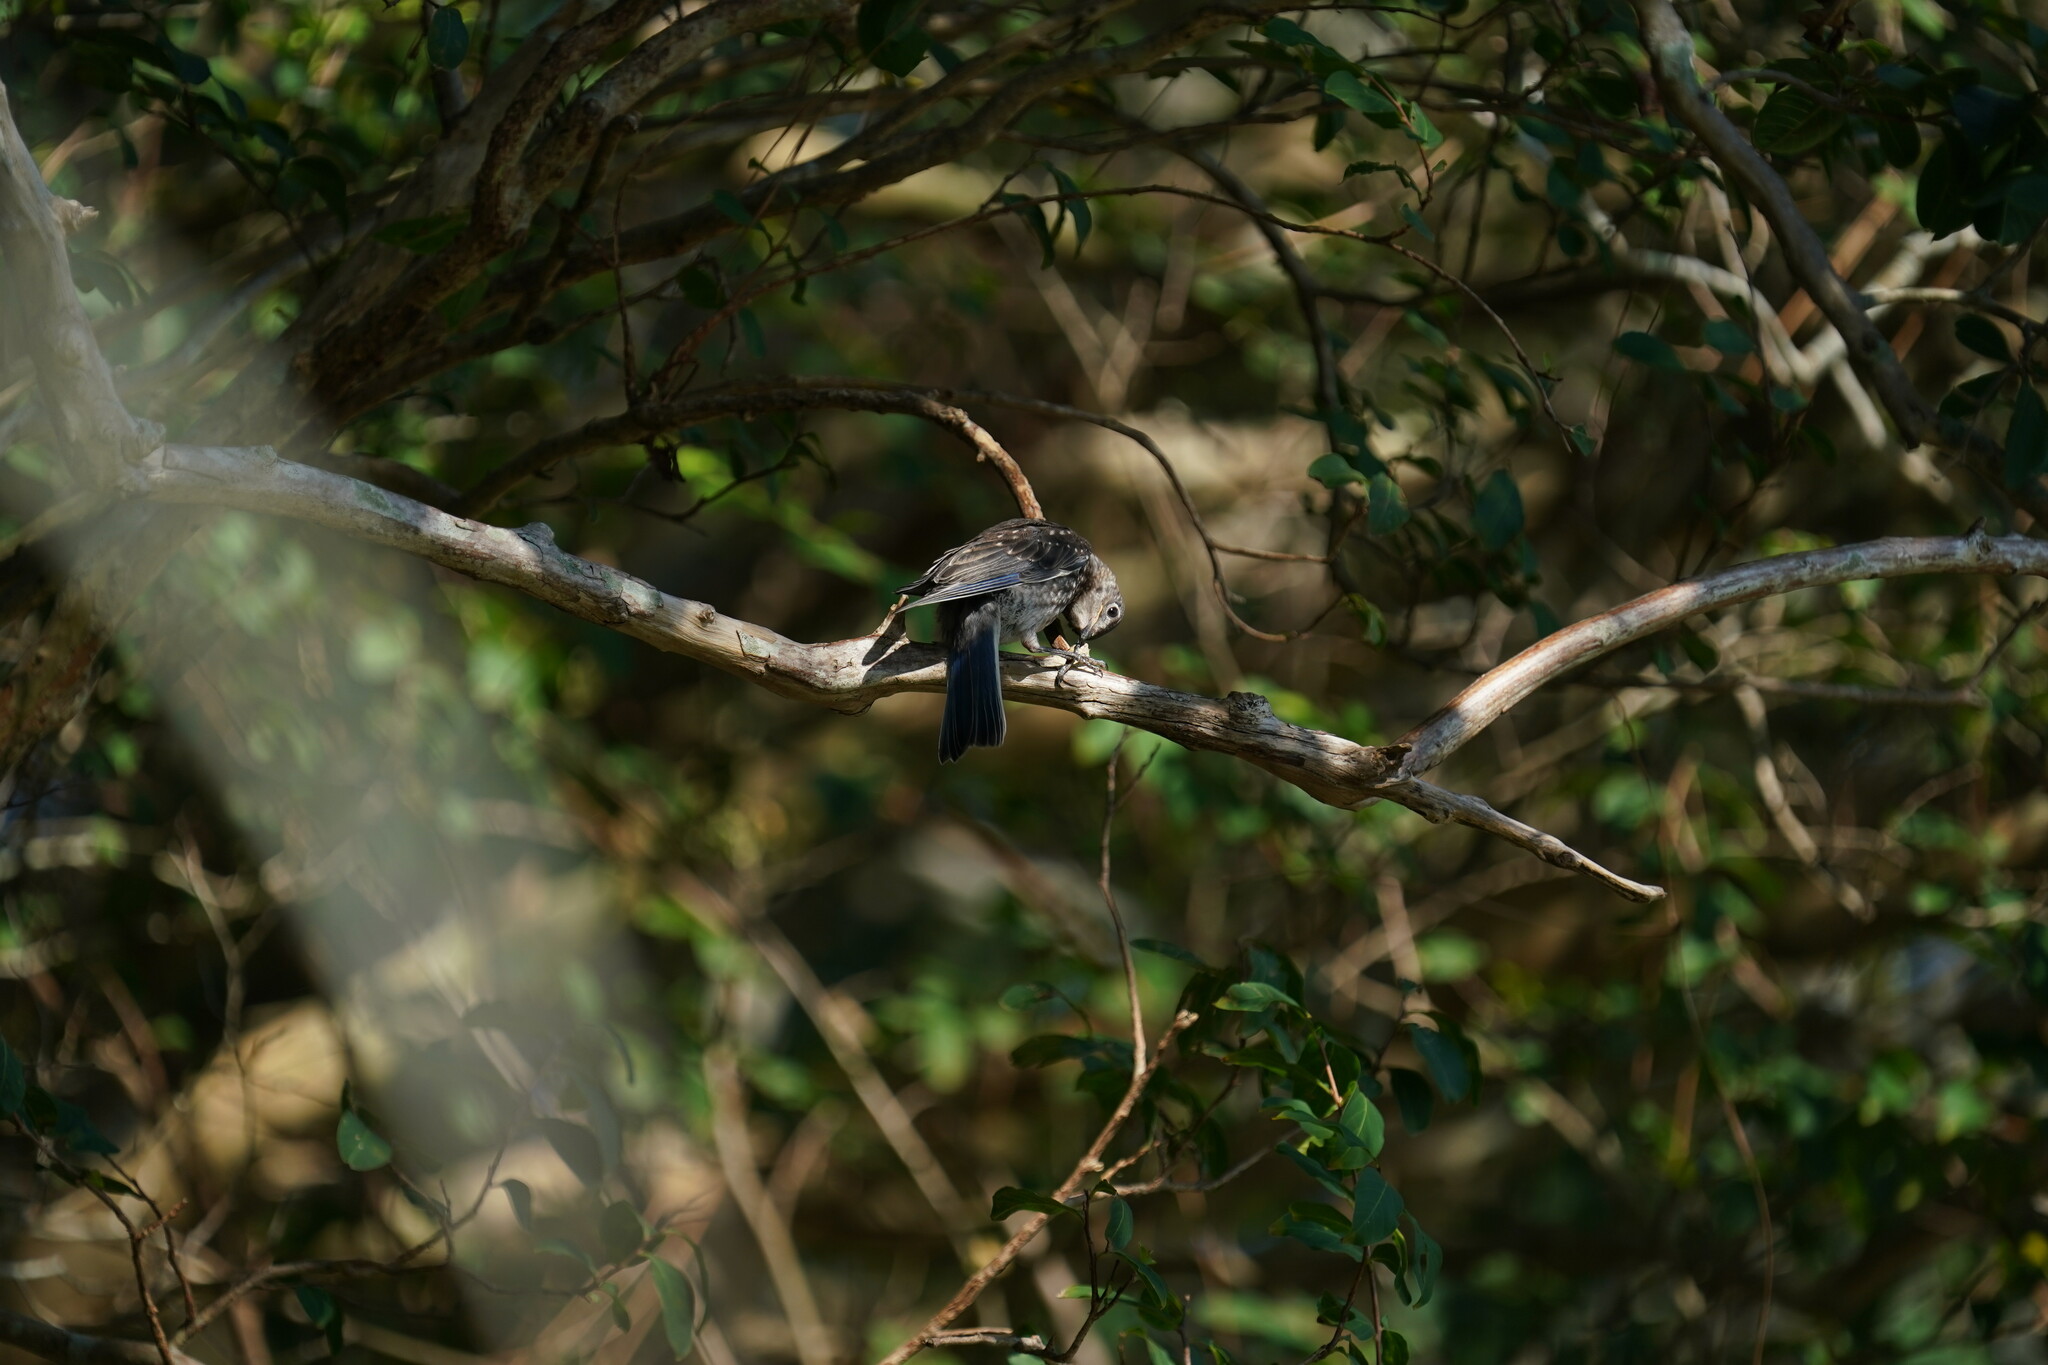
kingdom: Animalia
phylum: Chordata
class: Aves
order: Passeriformes
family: Turdidae
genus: Sialia
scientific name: Sialia sialis
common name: Eastern bluebird
